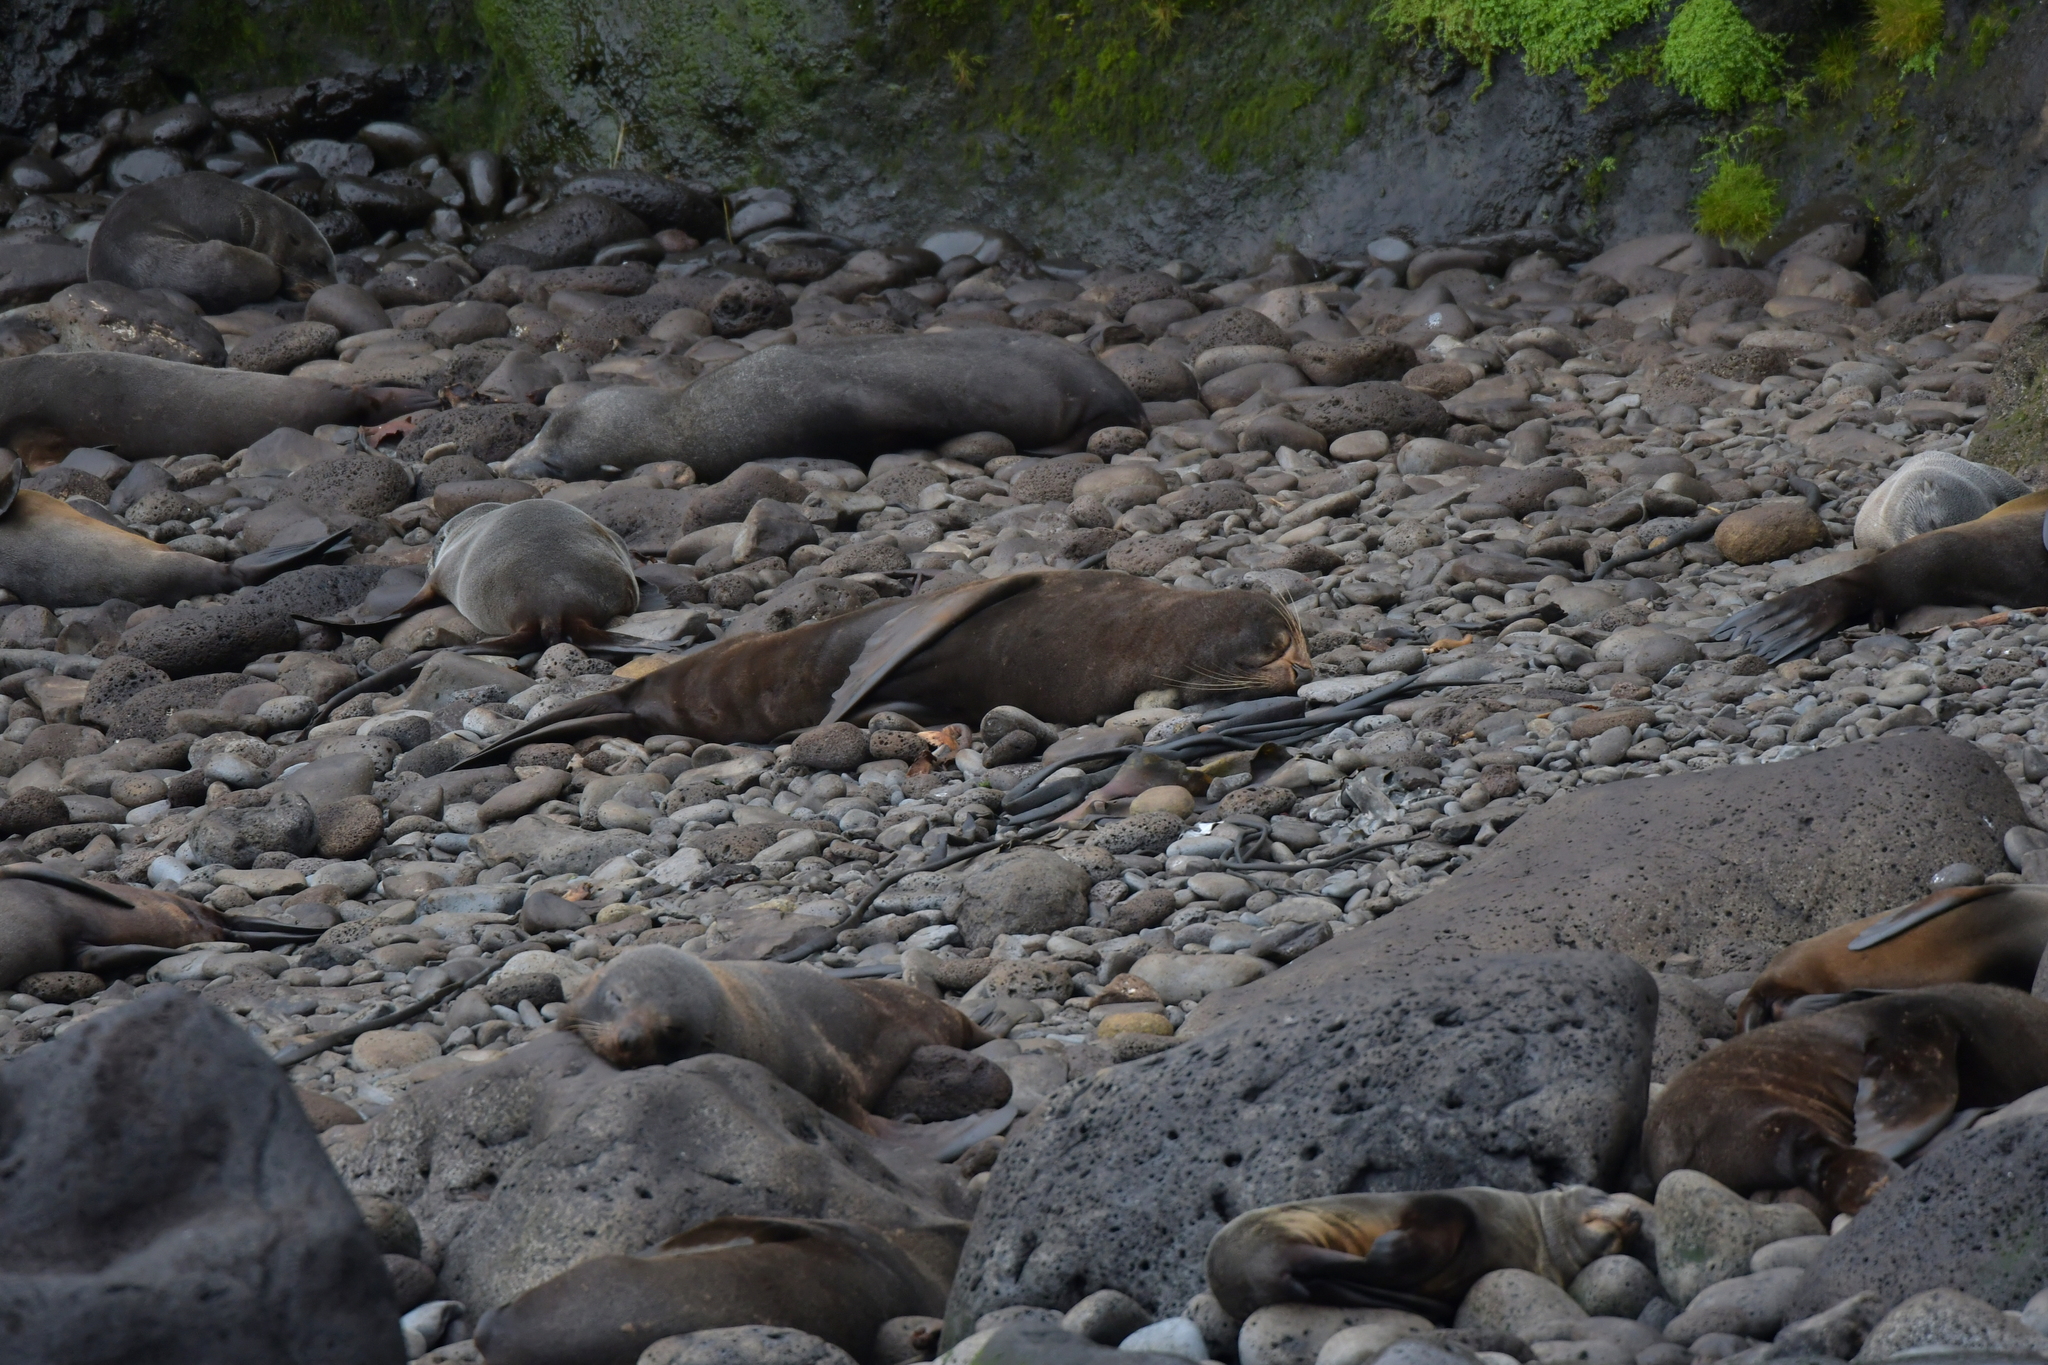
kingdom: Animalia
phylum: Chordata
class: Mammalia
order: Carnivora
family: Otariidae
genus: Arctocephalus
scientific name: Arctocephalus forsteri
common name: New zealand fur seal
